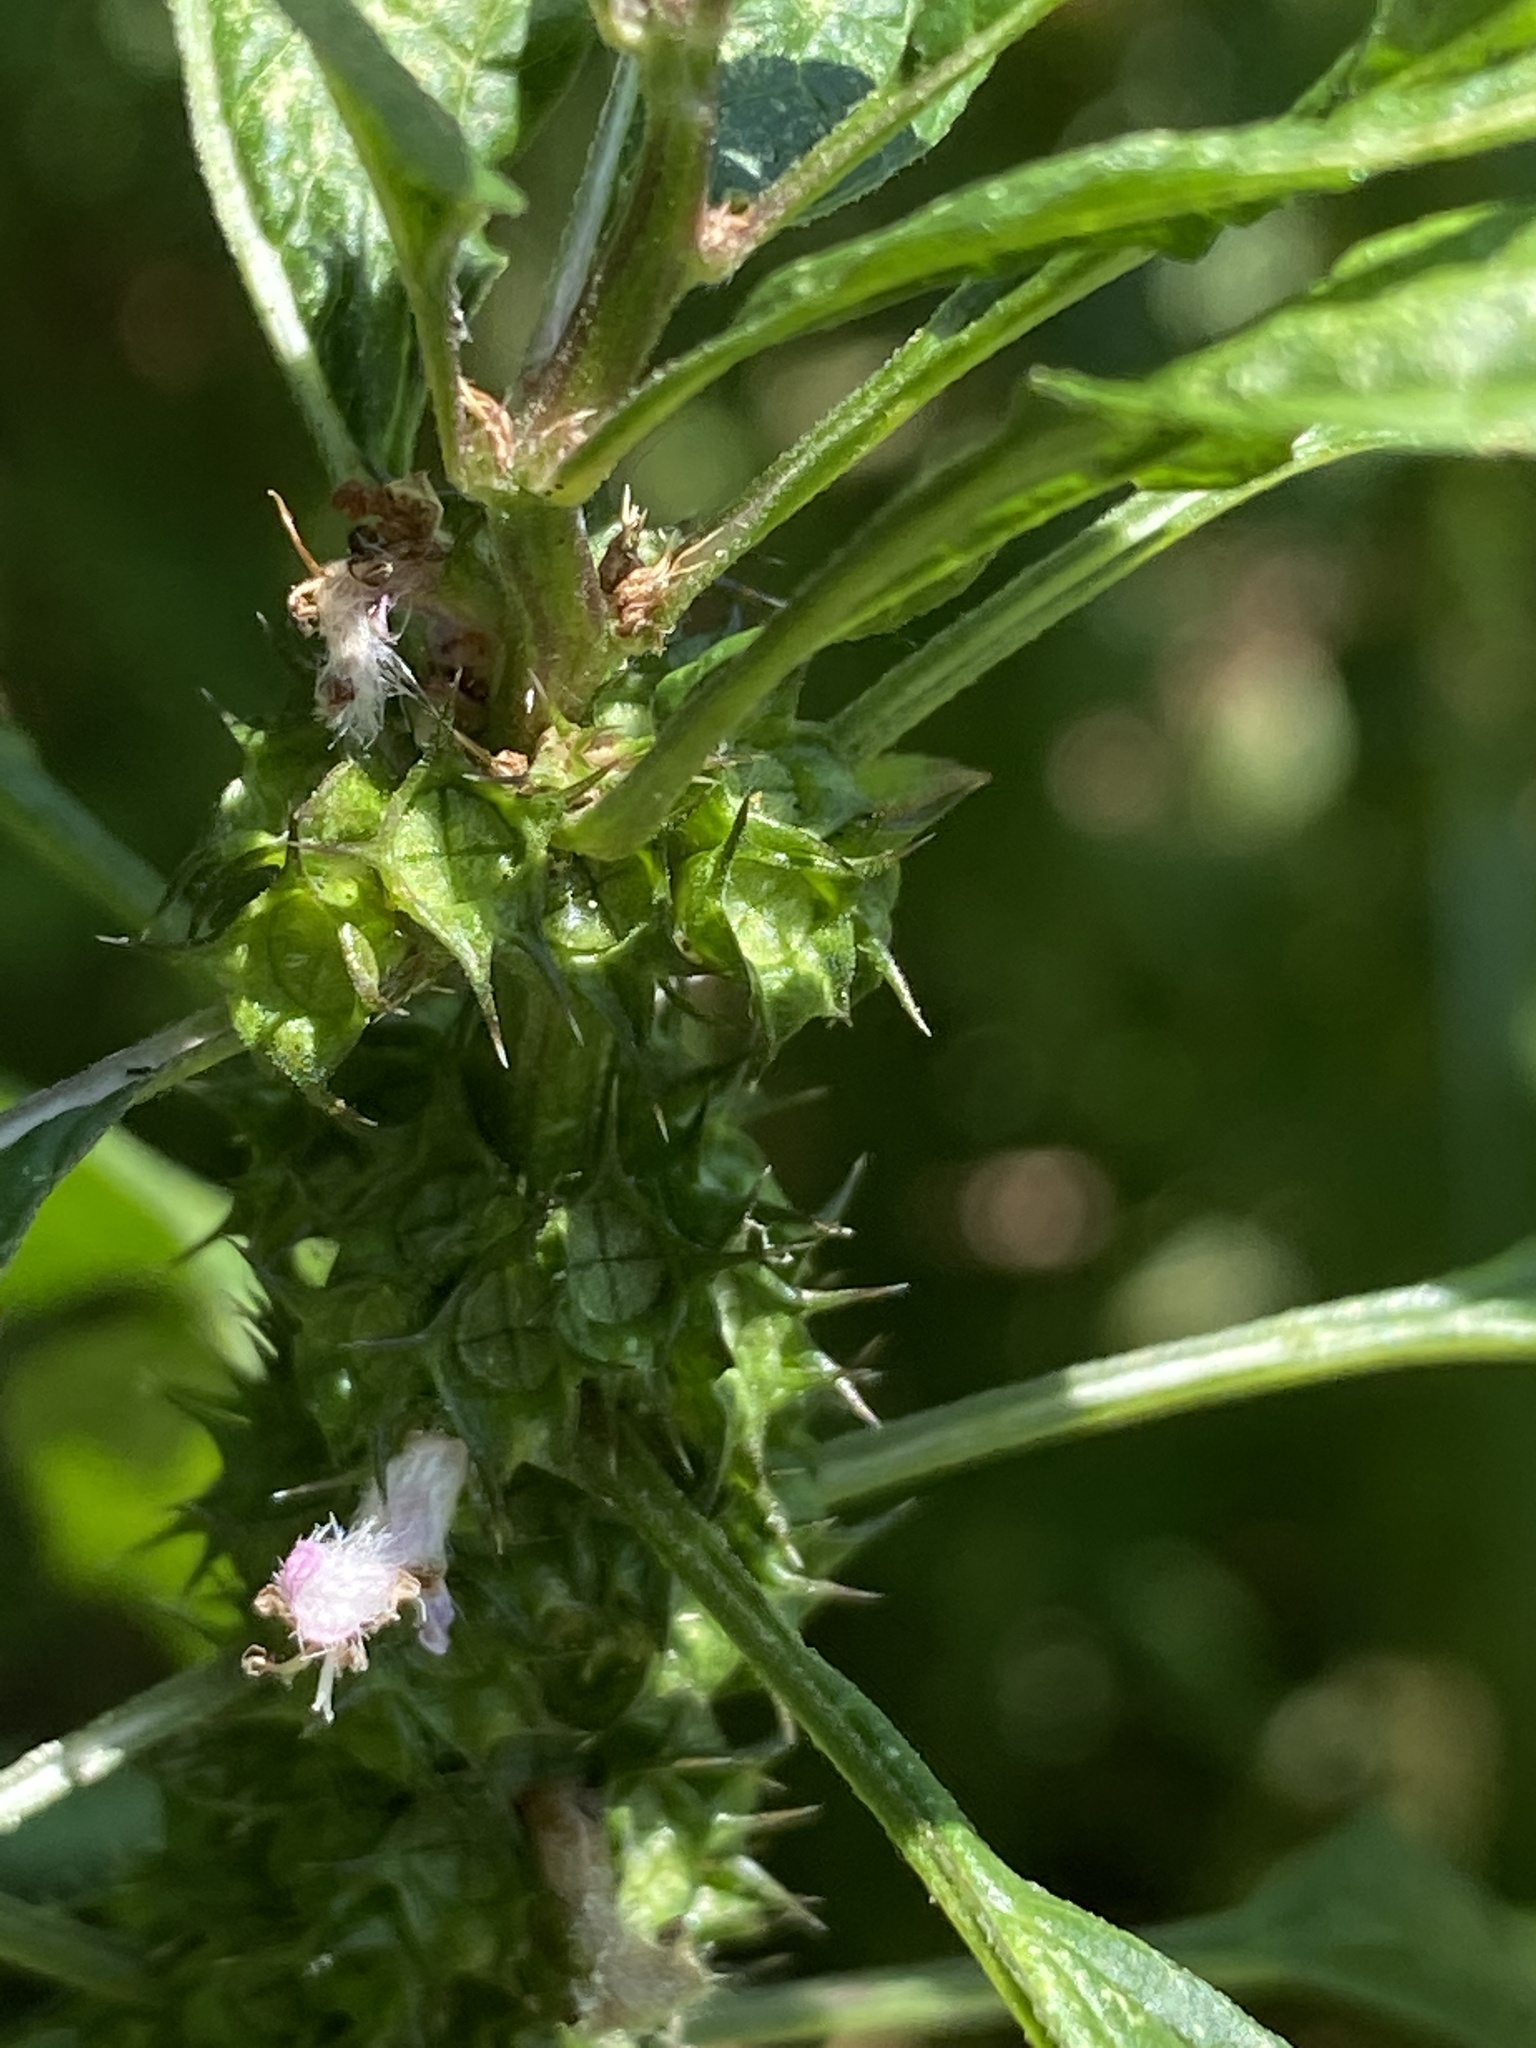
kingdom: Plantae
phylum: Tracheophyta
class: Magnoliopsida
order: Lamiales
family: Lamiaceae
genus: Leonurus
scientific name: Leonurus cardiaca
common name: Motherwort
